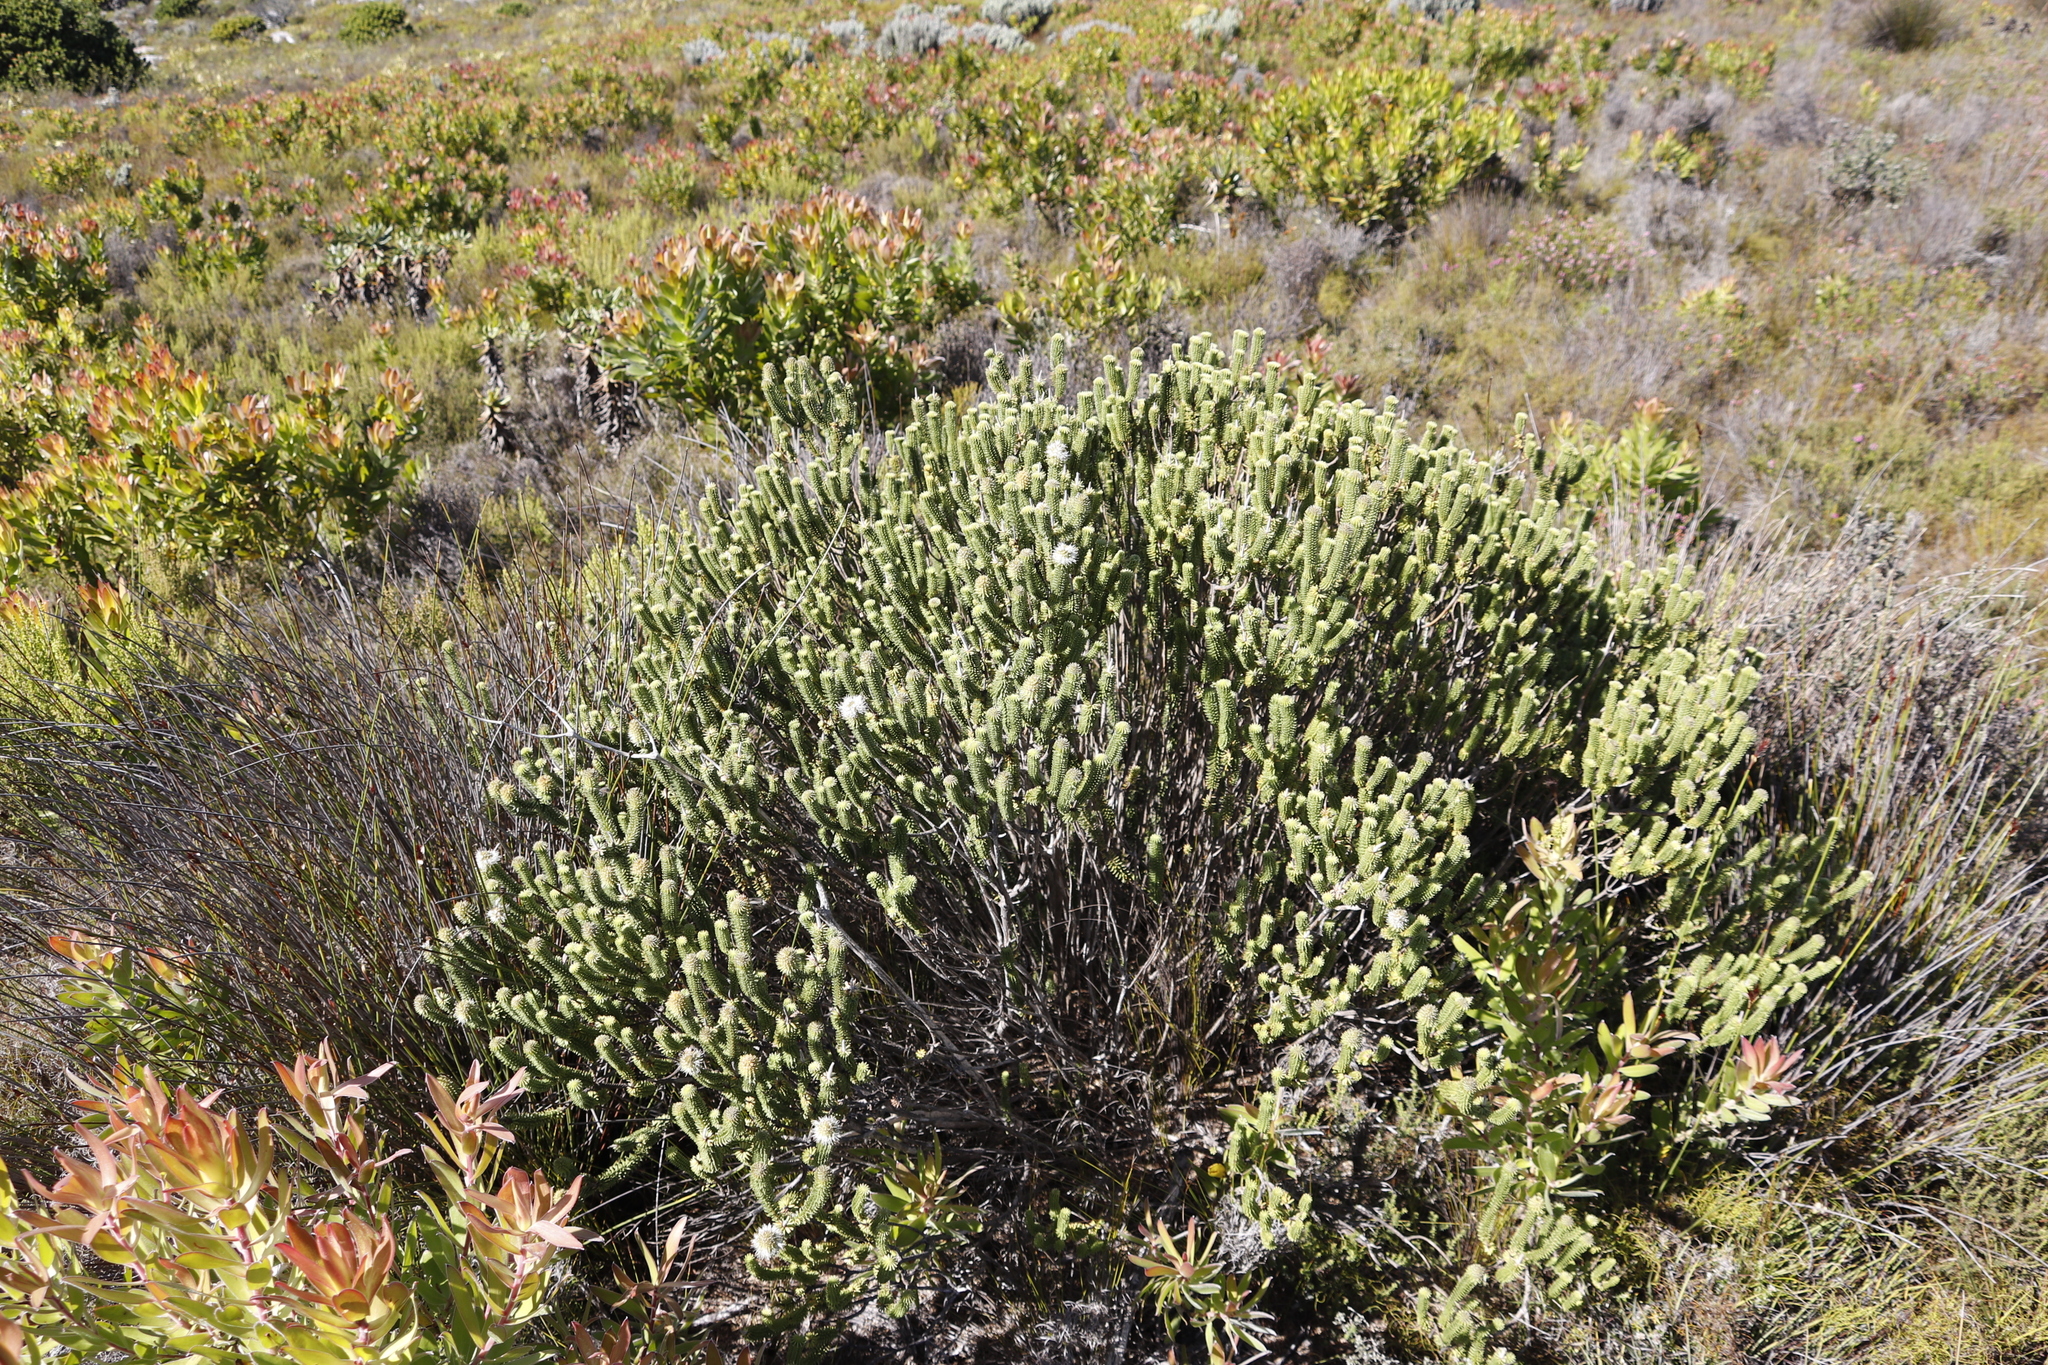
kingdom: Plantae
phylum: Tracheophyta
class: Magnoliopsida
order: Lamiales
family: Stilbaceae
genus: Stilbe
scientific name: Stilbe vestita
